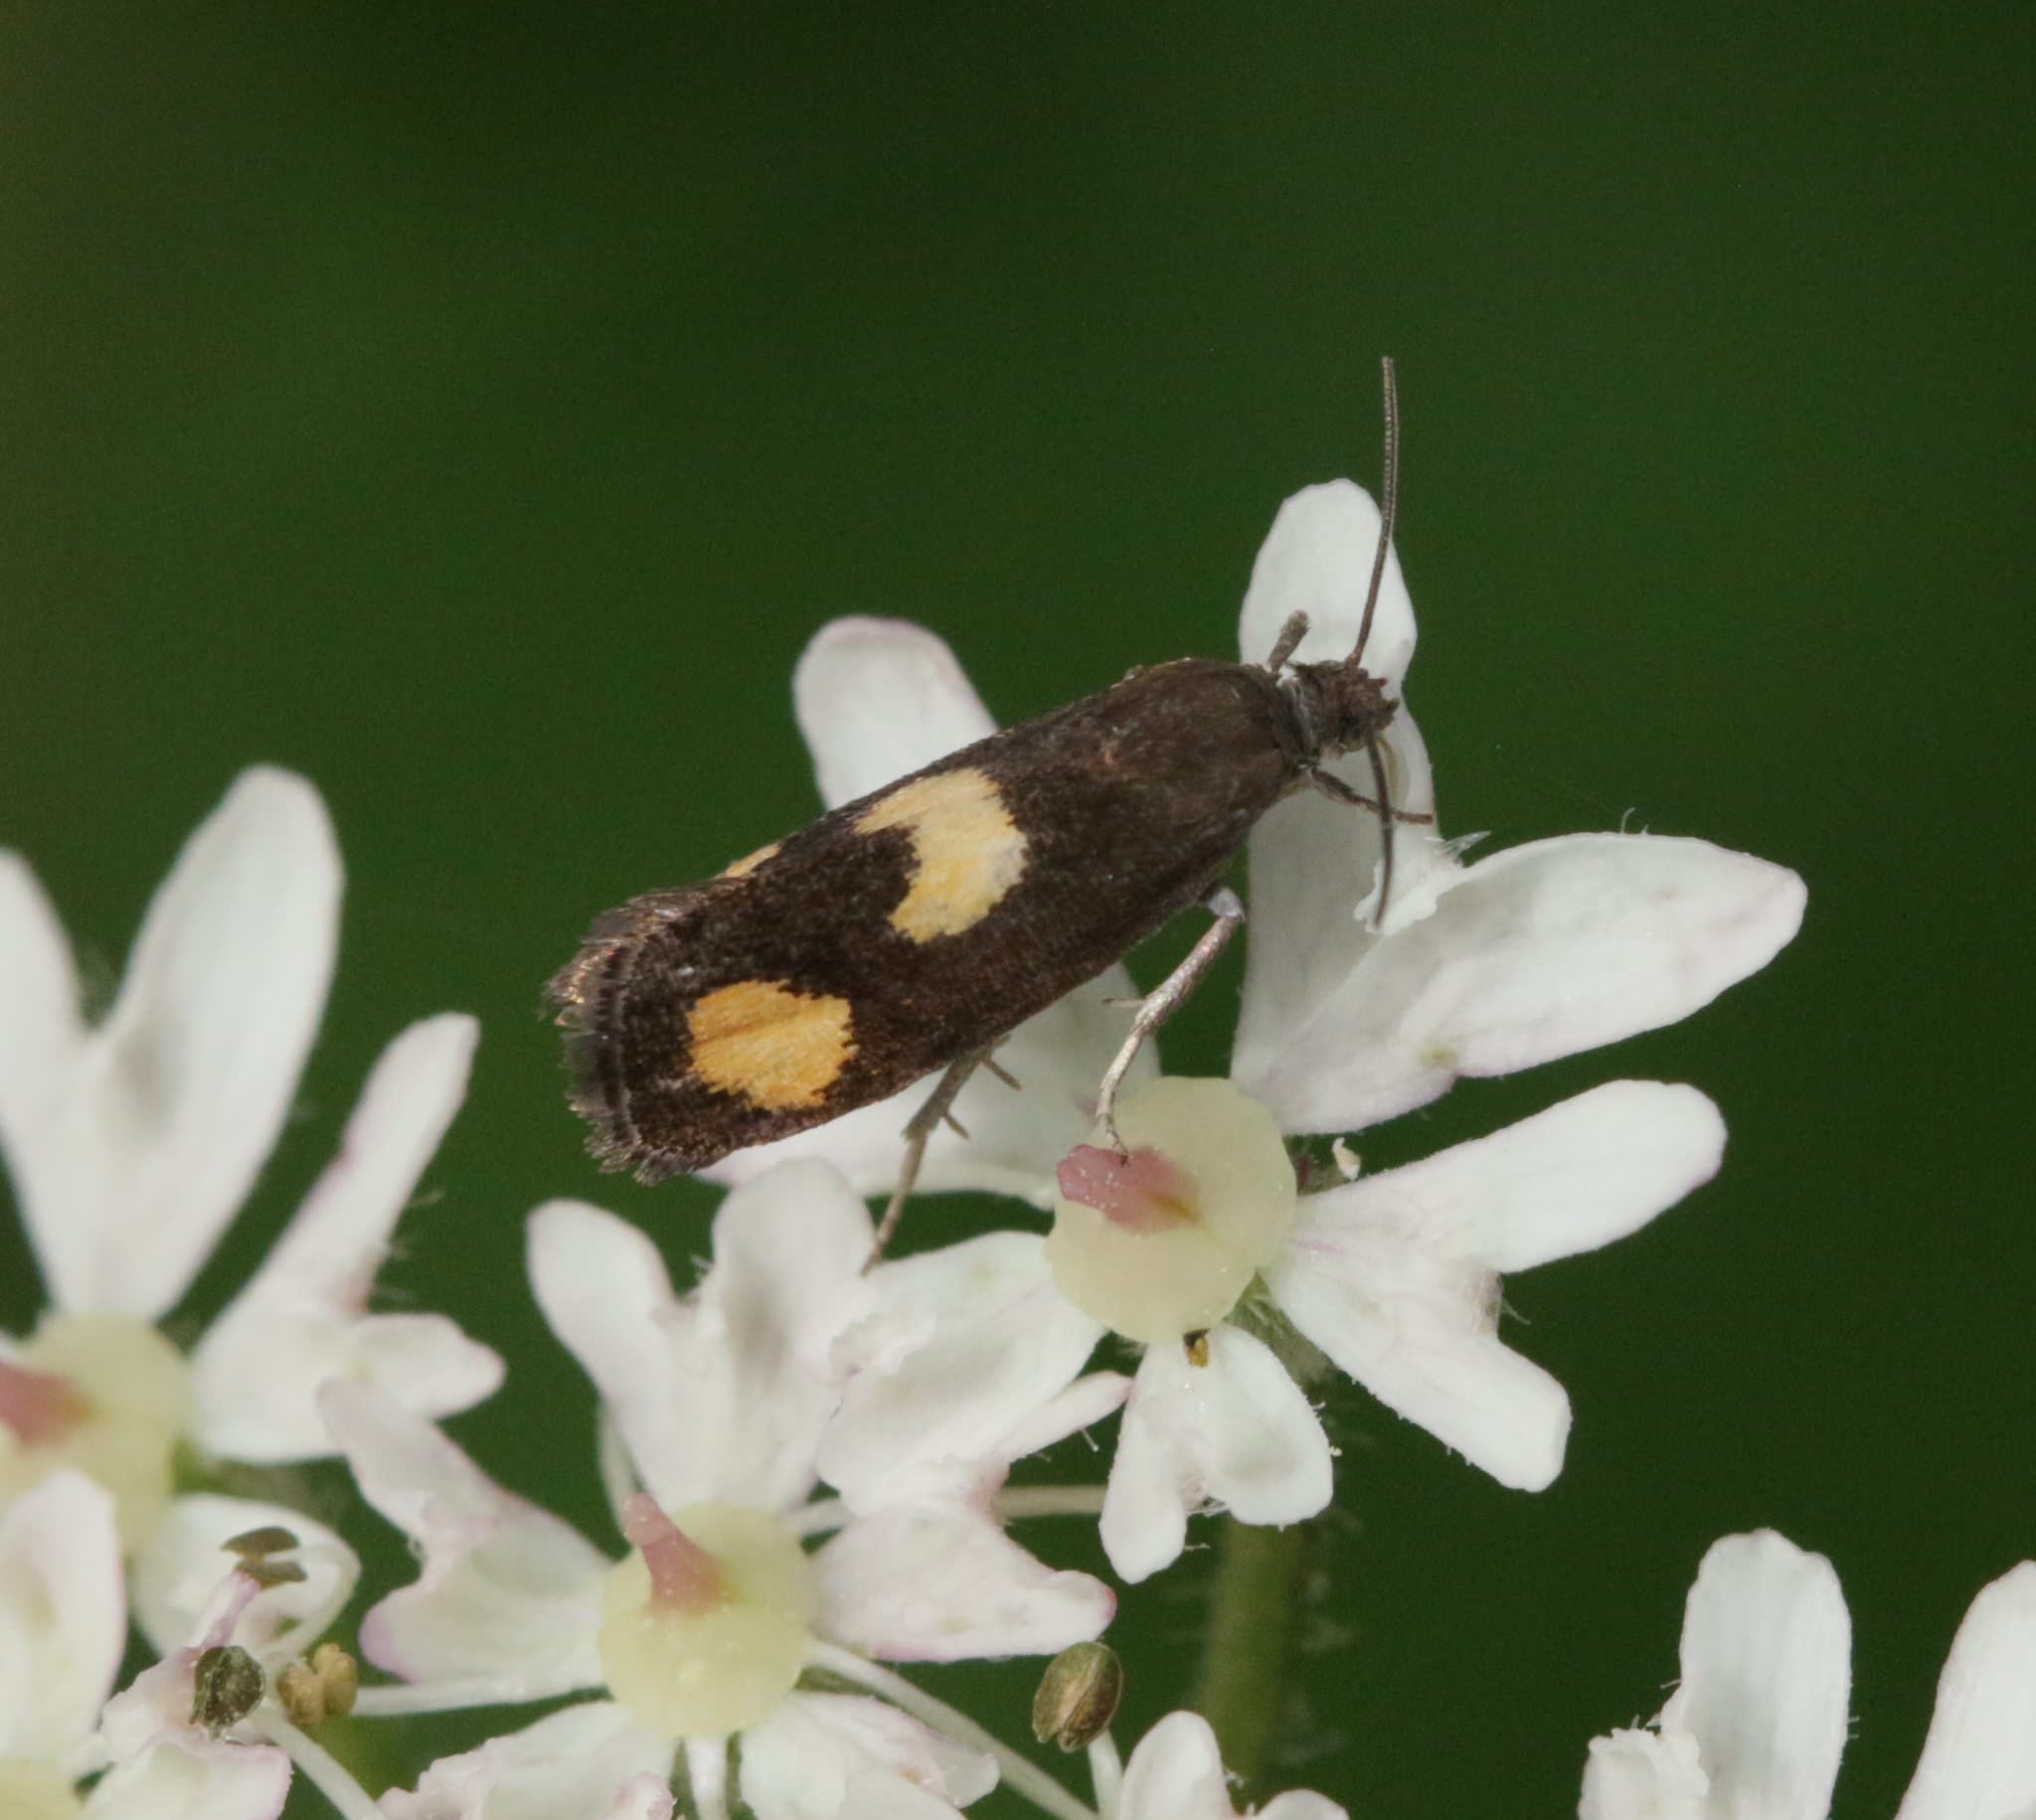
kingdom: Plantae
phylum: Tracheophyta
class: Magnoliopsida
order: Apiales
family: Apiaceae
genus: Heracleum
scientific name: Heracleum sphondylium
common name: Hogweed
